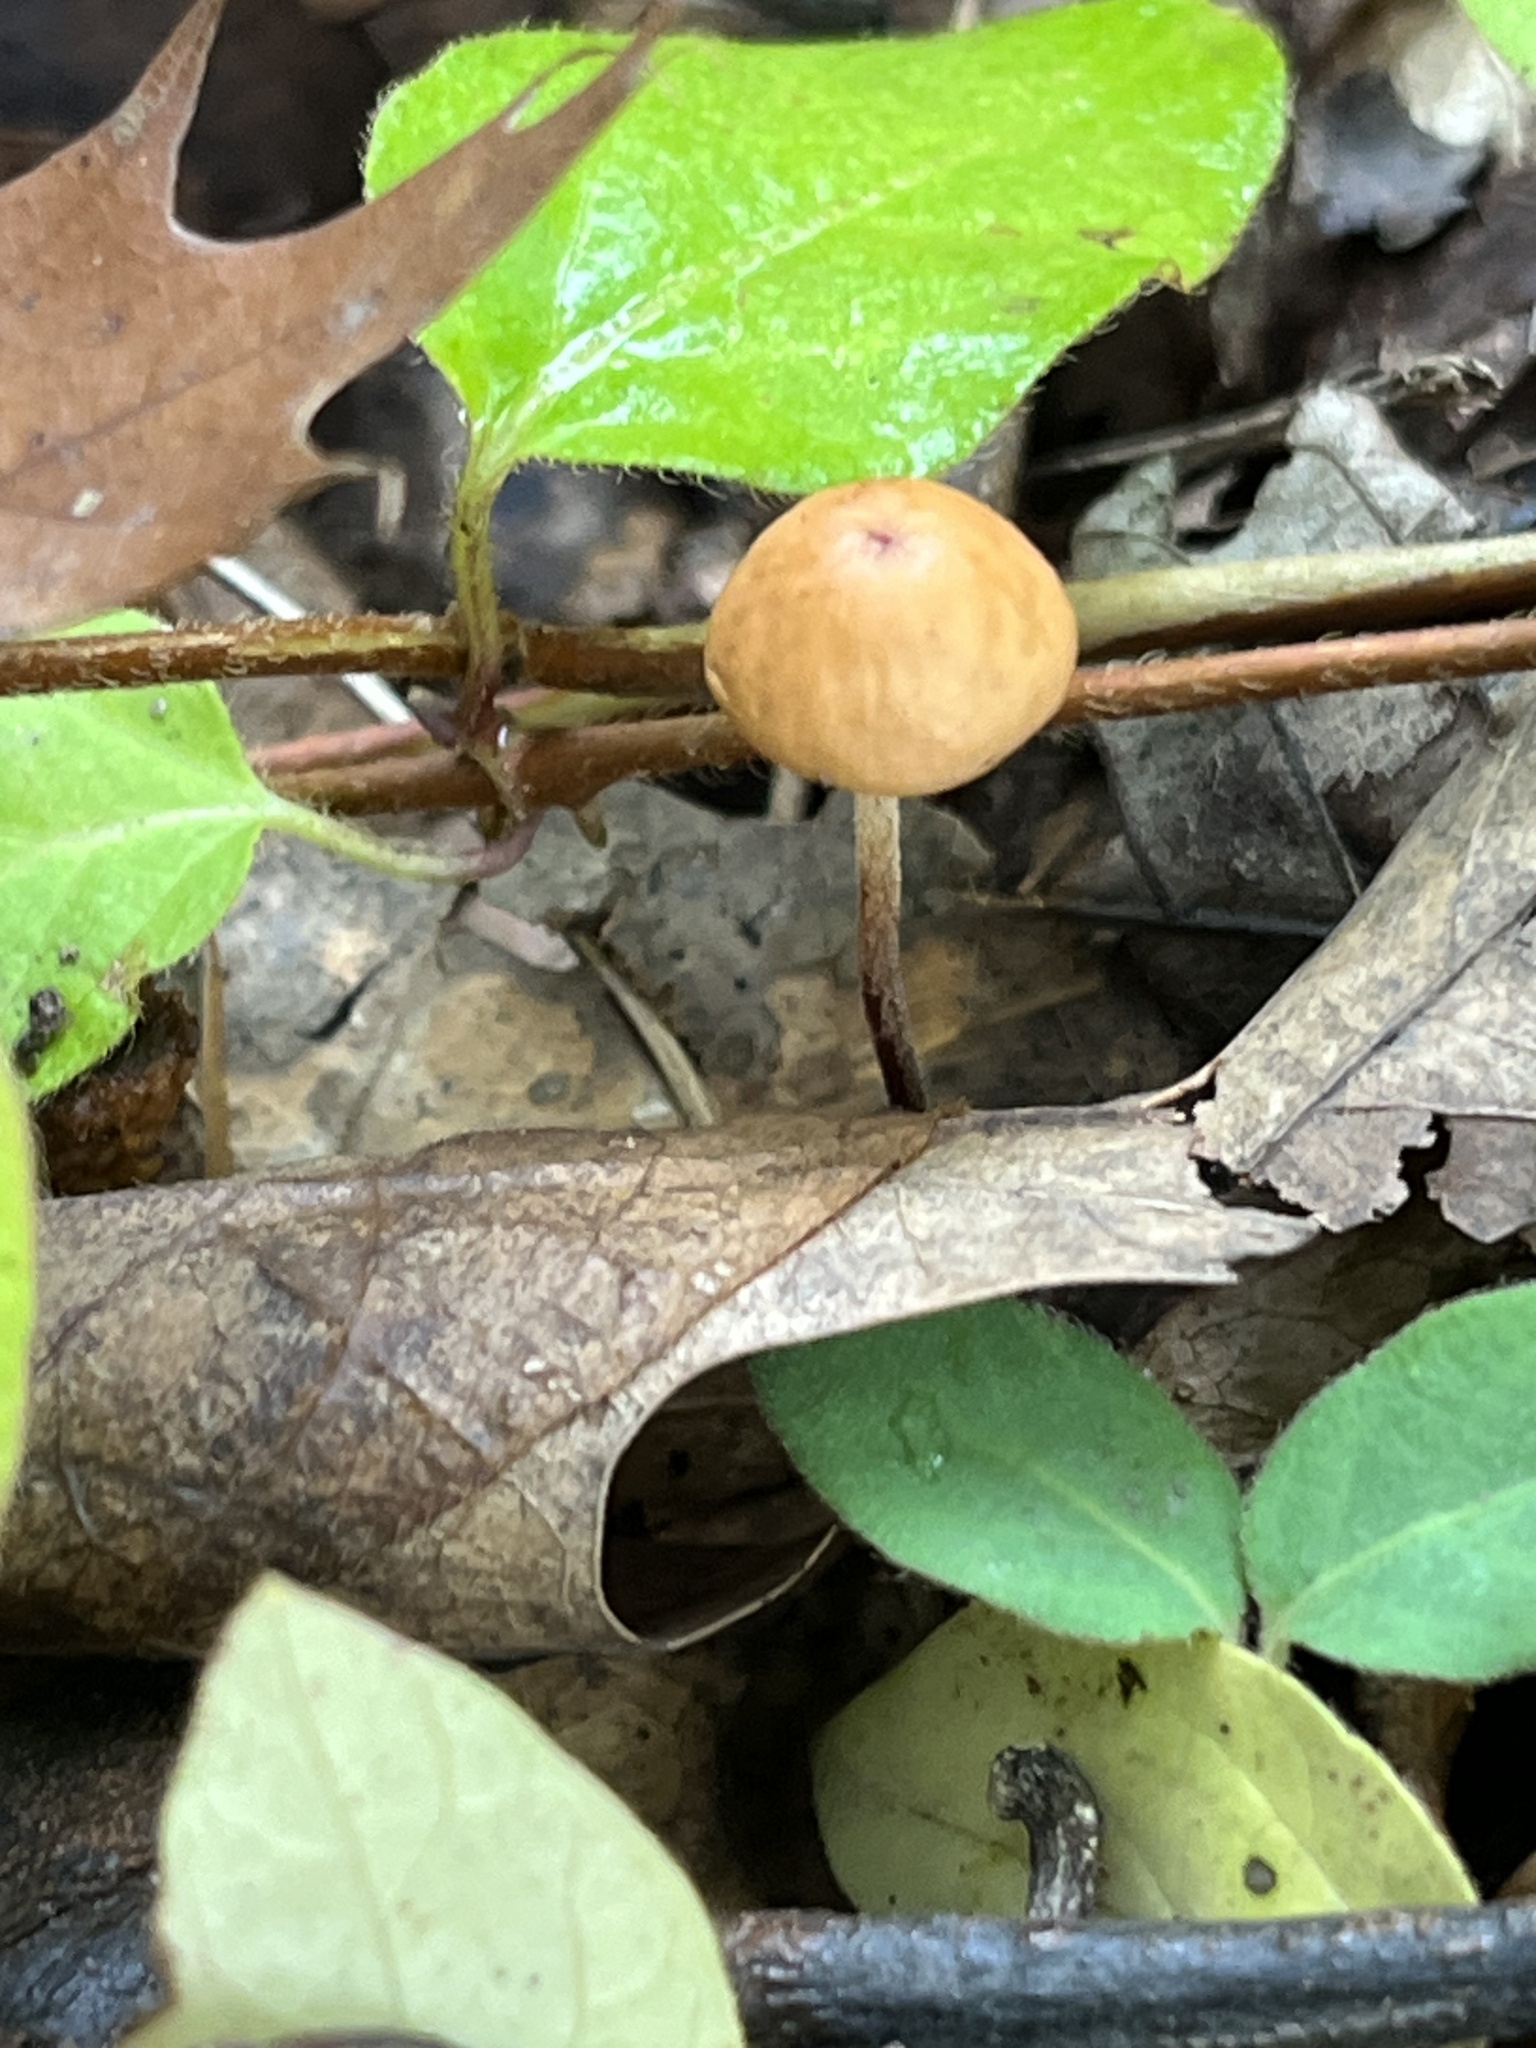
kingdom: Fungi
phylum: Basidiomycota
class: Agaricomycetes
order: Agaricales
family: Physalacriaceae
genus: Rhizomarasmius
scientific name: Rhizomarasmius pyrrhocephalus
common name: Hairy long stem marasmius
